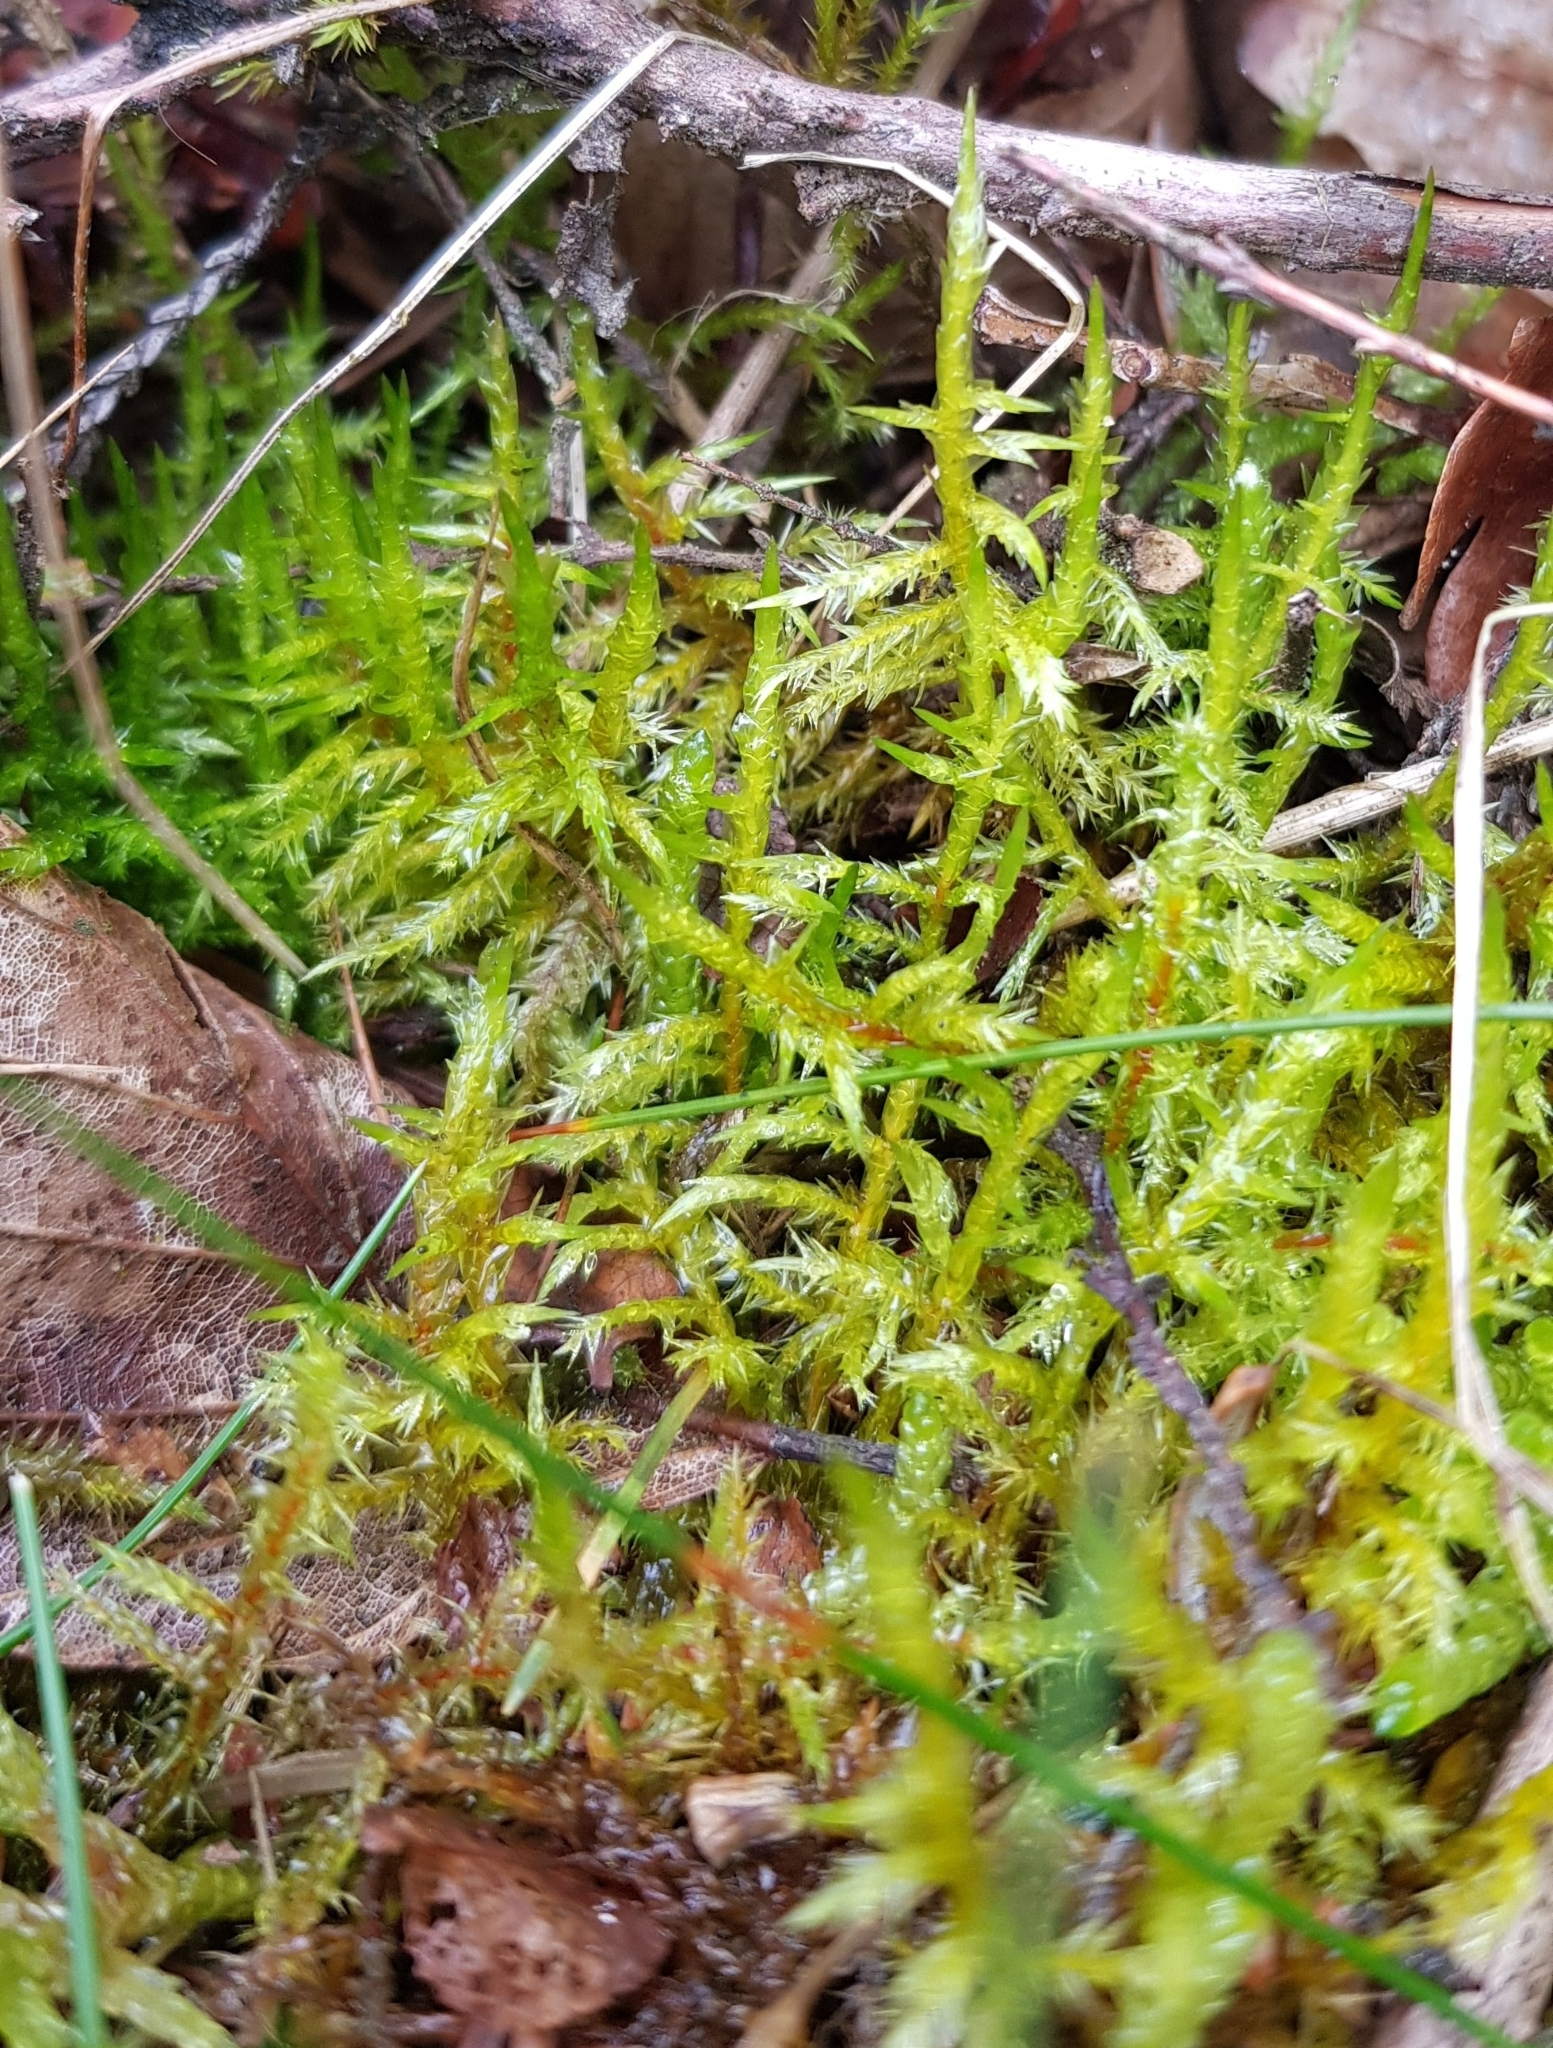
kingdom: Plantae
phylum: Bryophyta
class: Bryopsida
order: Hypnales
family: Pylaisiaceae
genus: Calliergonella
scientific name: Calliergonella cuspidata
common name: Common large wetland moss
